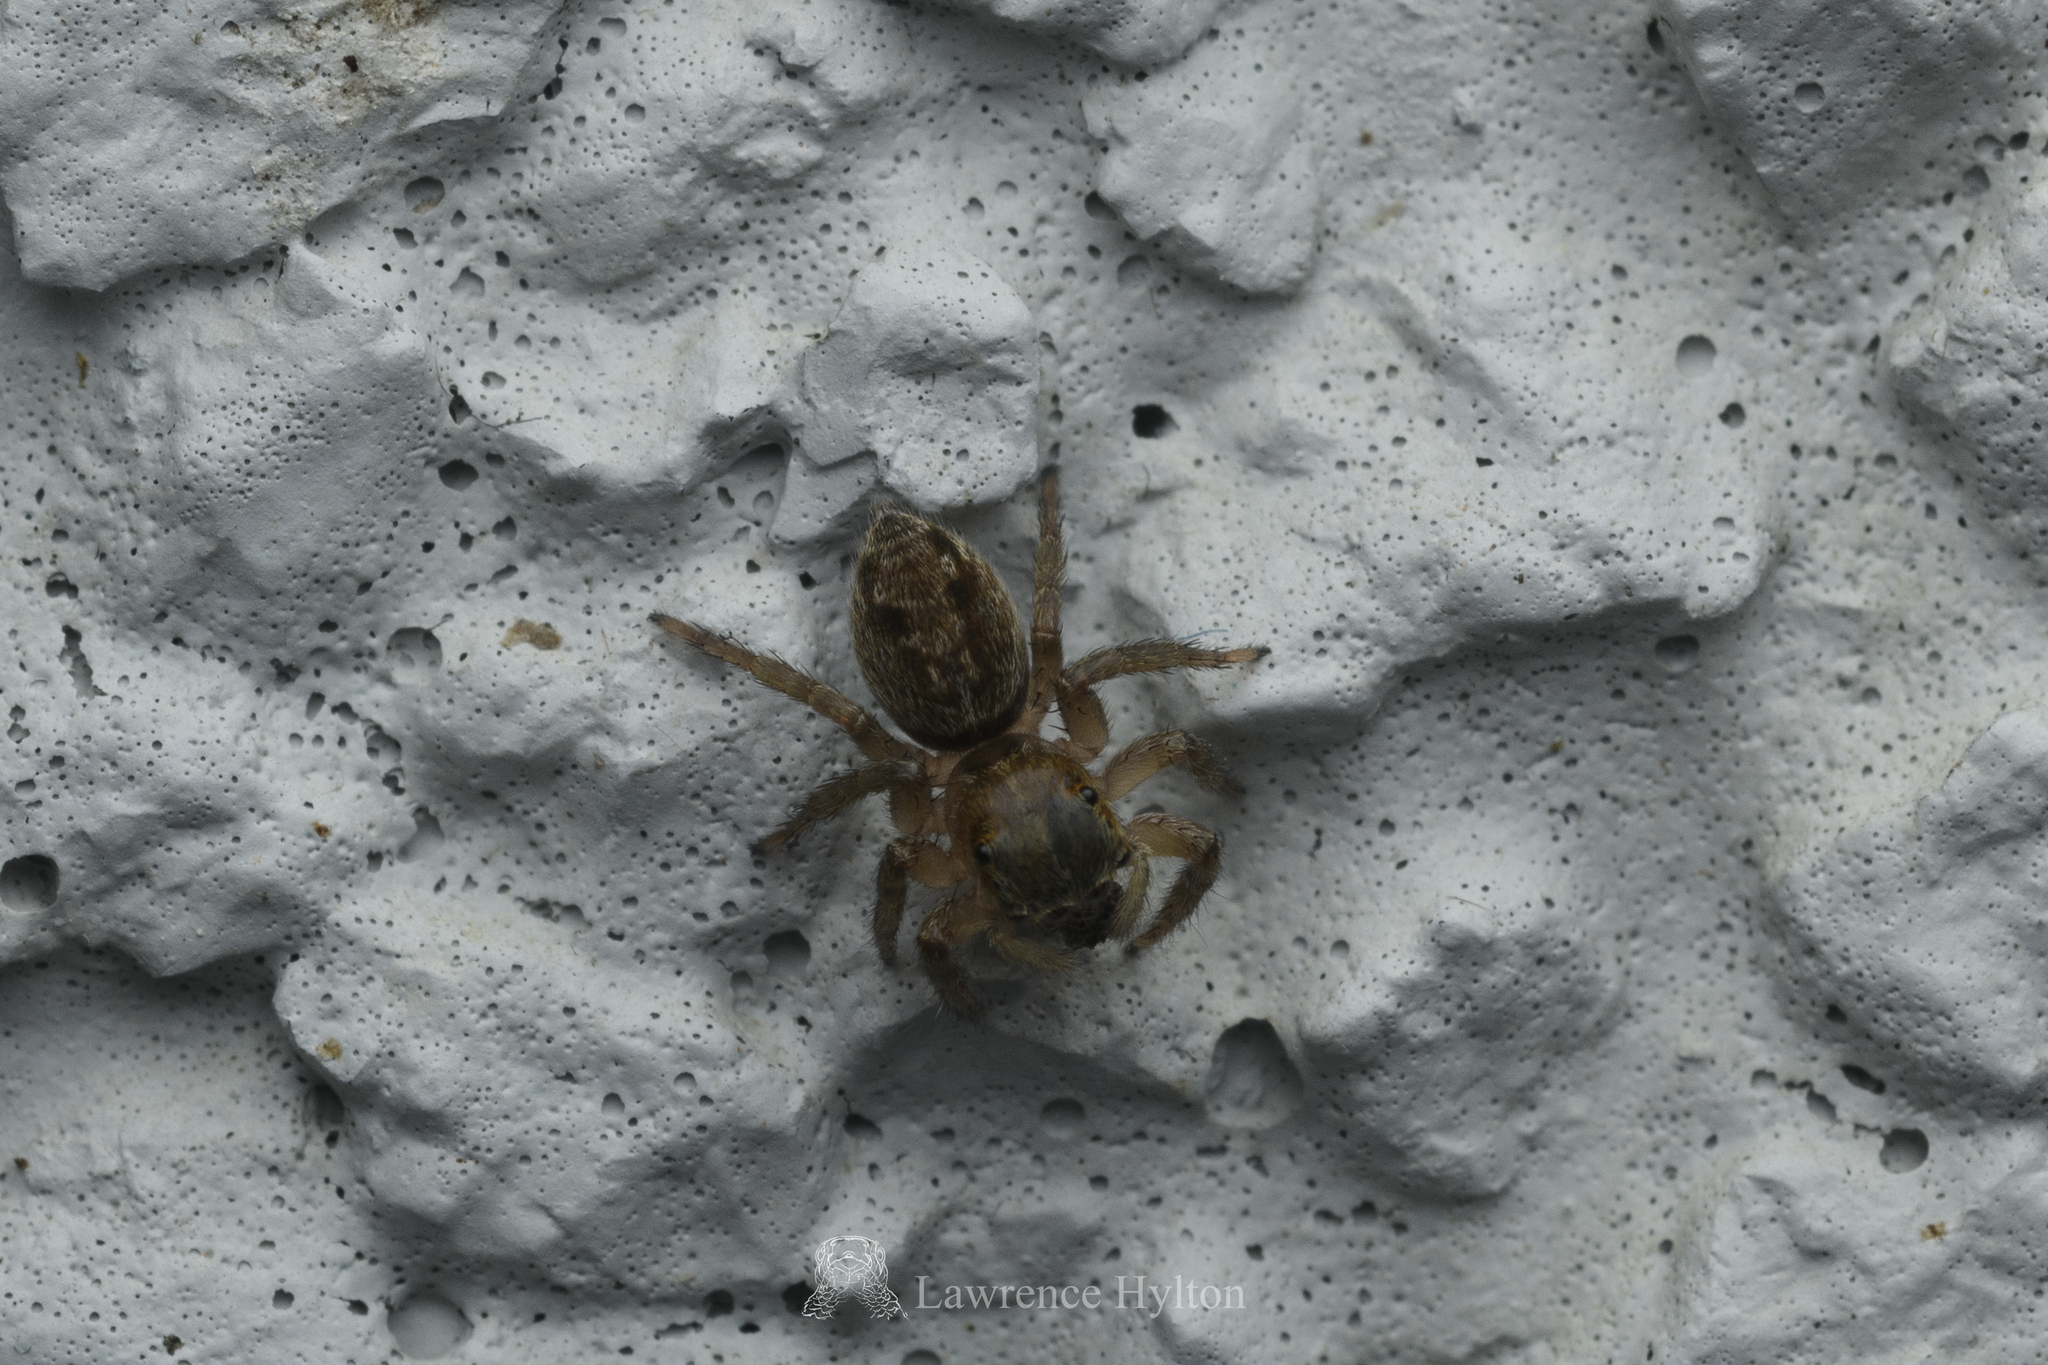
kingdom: Animalia
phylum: Arthropoda
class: Arachnida
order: Araneae
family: Salticidae
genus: Hasarius
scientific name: Hasarius adansoni
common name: Jumping spider
